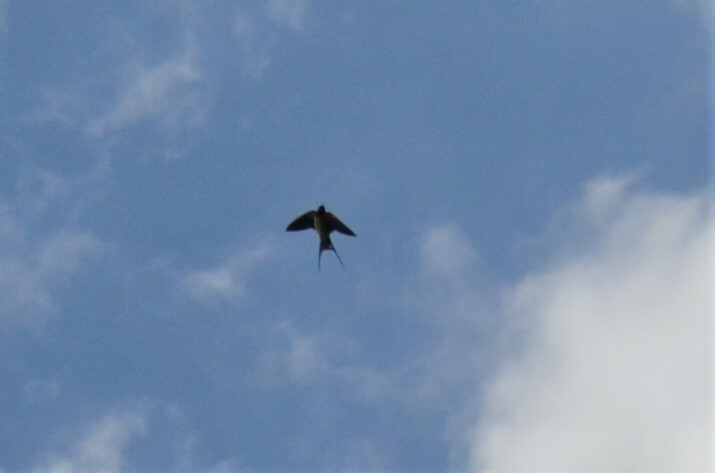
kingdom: Animalia
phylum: Chordata
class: Aves
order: Passeriformes
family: Hirundinidae
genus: Hirundo
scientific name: Hirundo rustica
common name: Barn swallow
